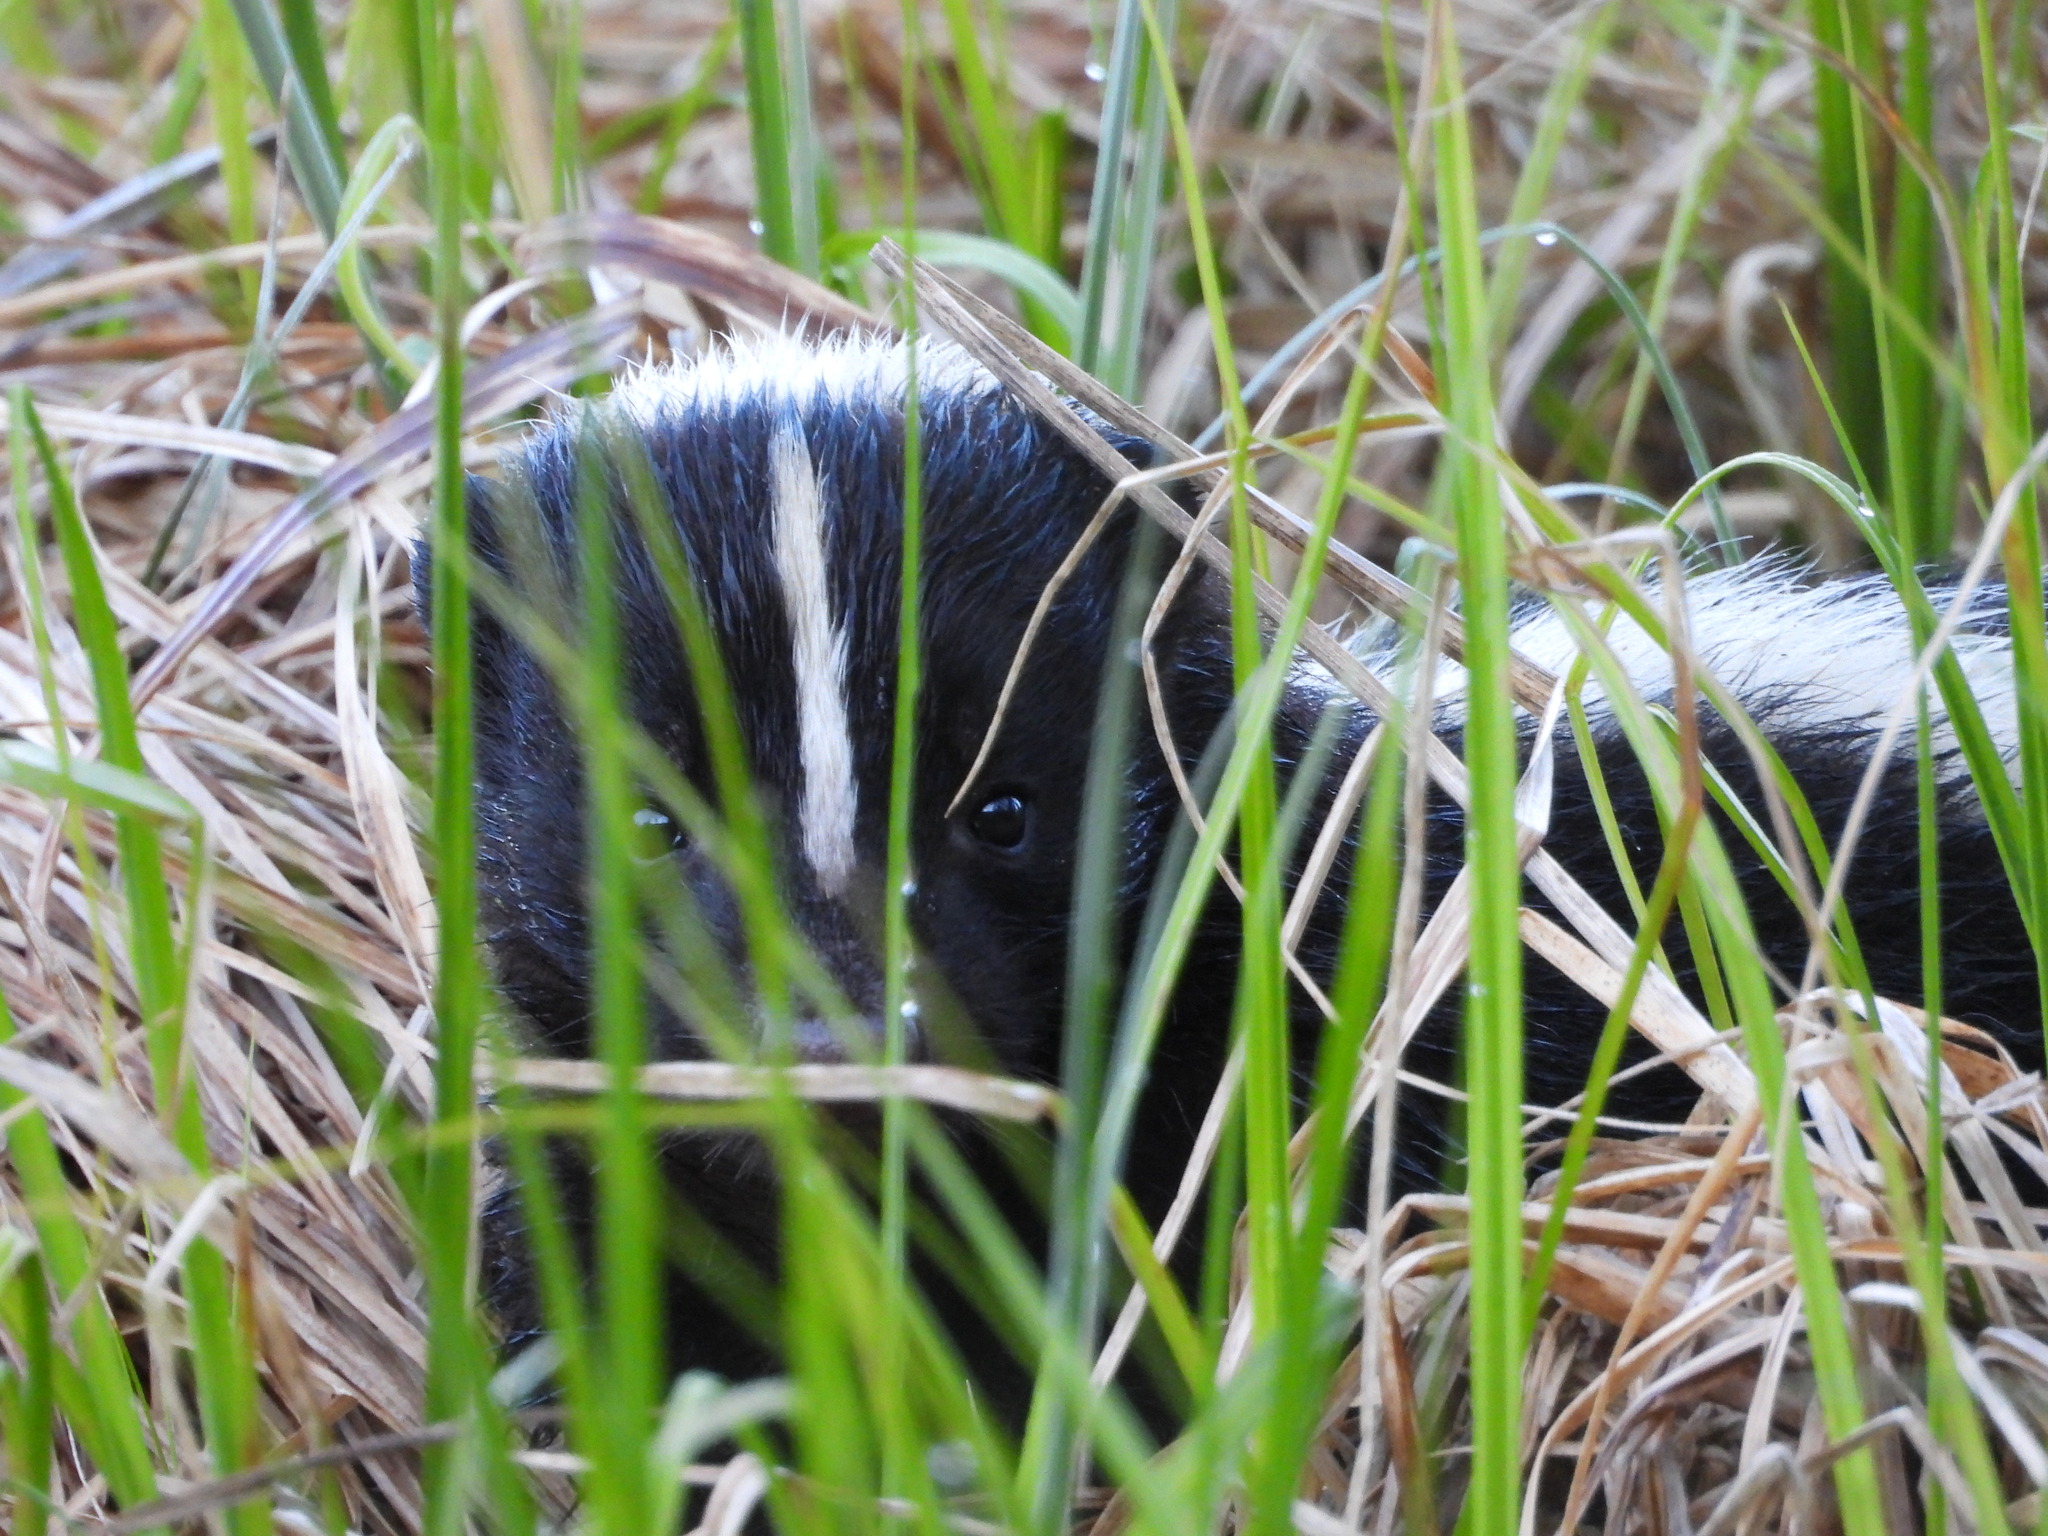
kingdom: Animalia
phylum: Chordata
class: Mammalia
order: Carnivora
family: Mephitidae
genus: Mephitis
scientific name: Mephitis mephitis
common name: Striped skunk
